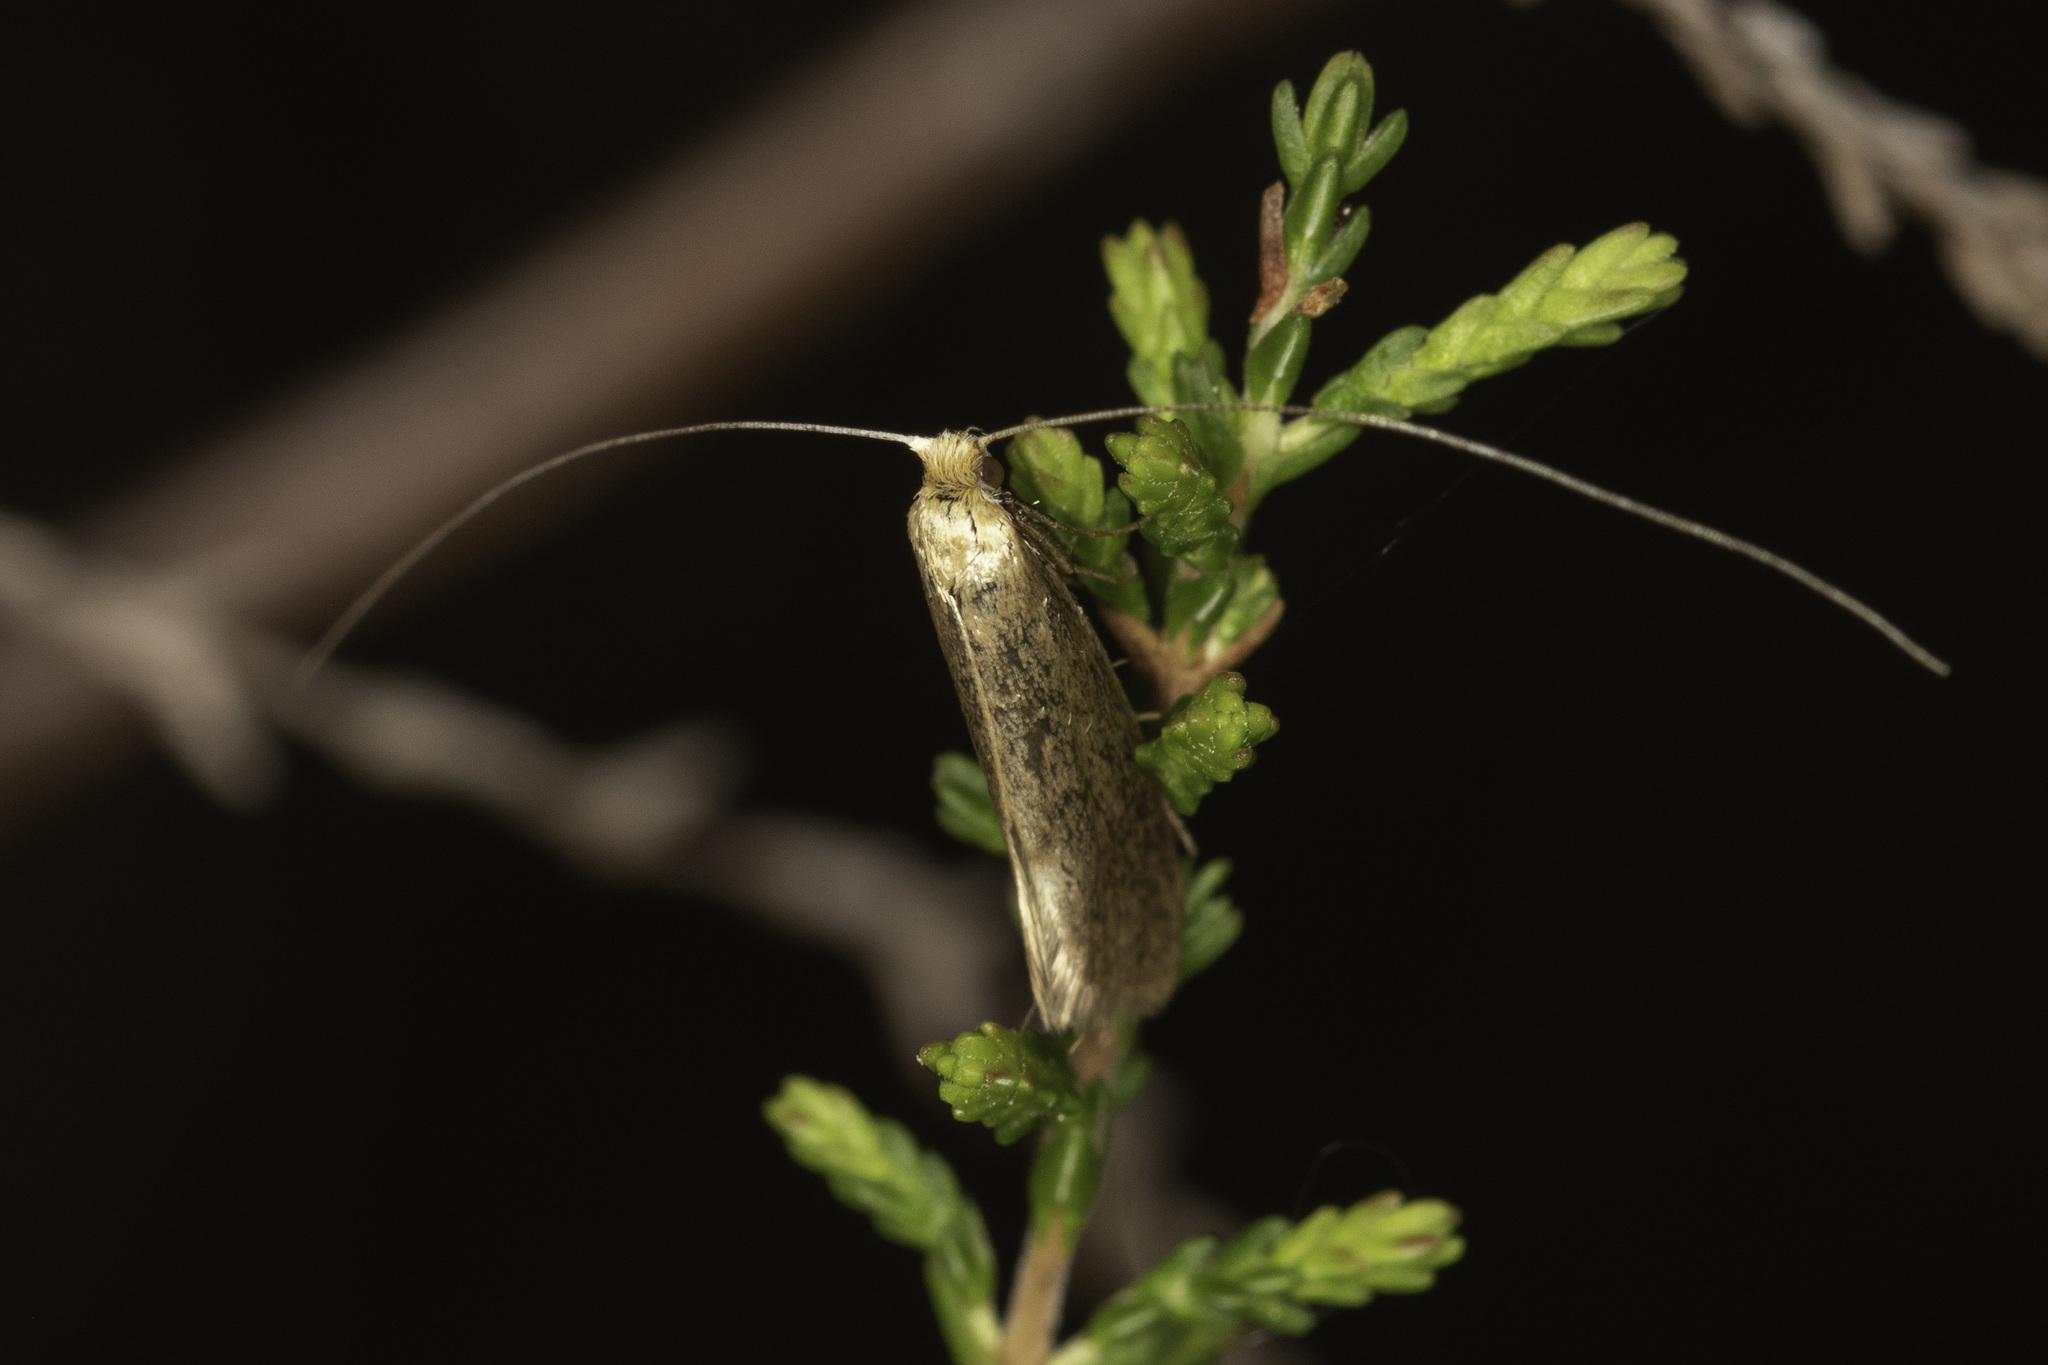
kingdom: Animalia
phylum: Arthropoda
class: Insecta
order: Lepidoptera
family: Adelidae
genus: Nematopogon
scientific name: Nematopogon schwarziellus
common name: Sandy long-horn
